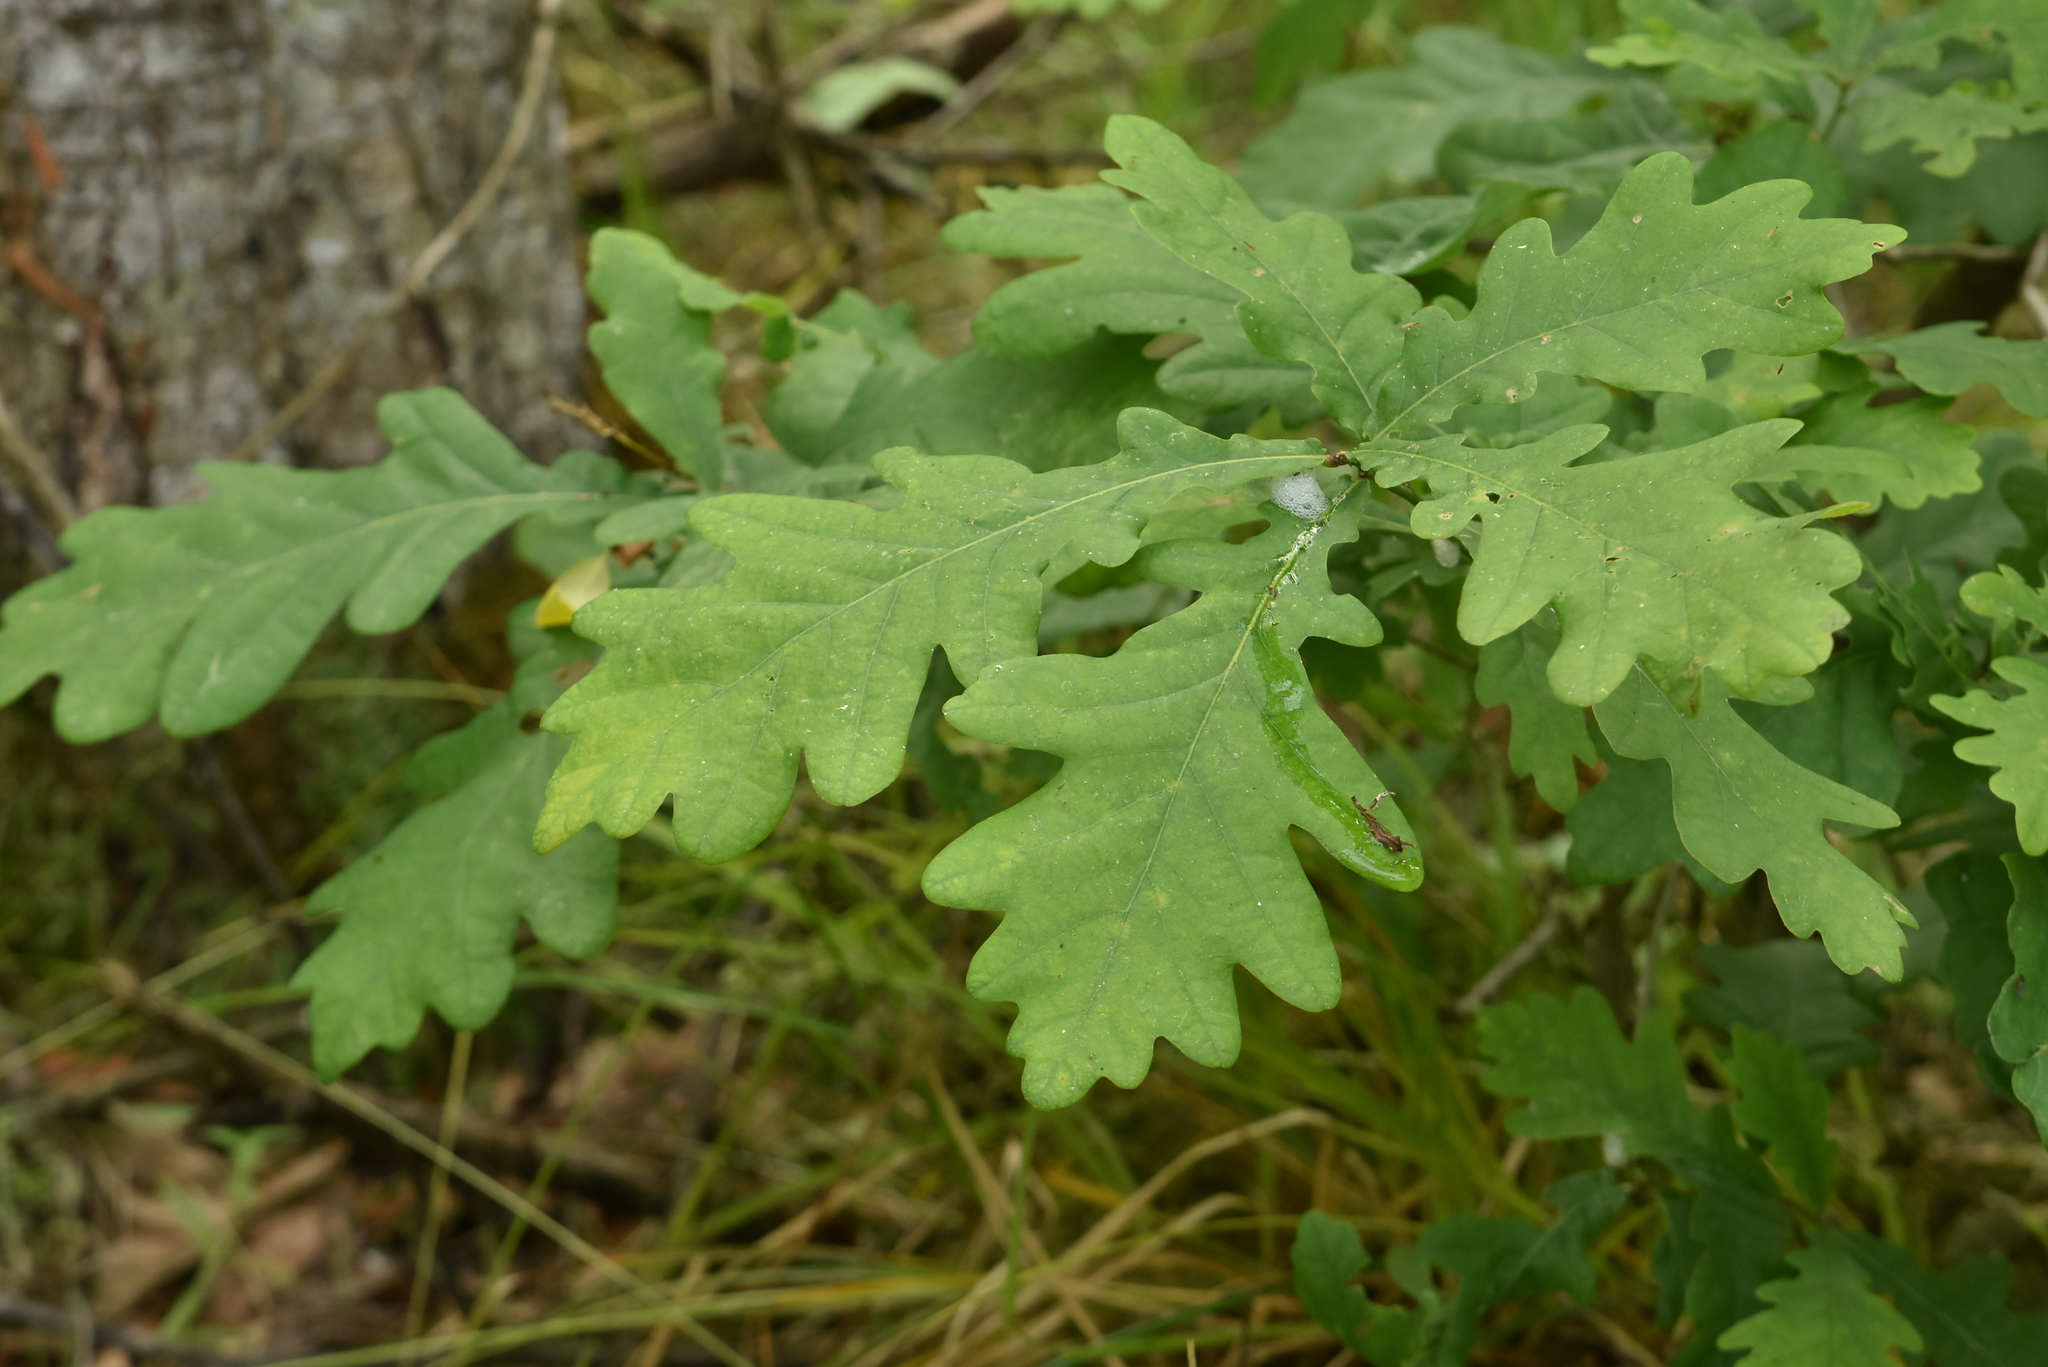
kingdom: Plantae
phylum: Tracheophyta
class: Magnoliopsida
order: Fagales
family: Fagaceae
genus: Quercus
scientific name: Quercus robur
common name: Pedunculate oak
